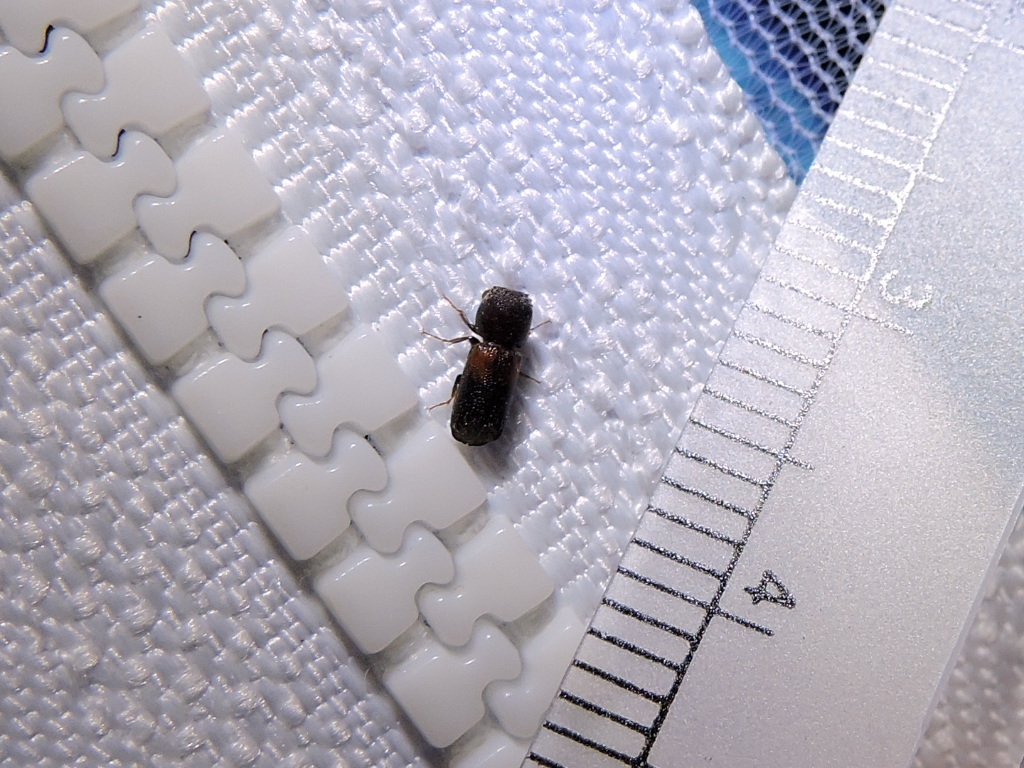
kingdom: Animalia
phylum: Arthropoda
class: Insecta
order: Coleoptera
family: Bostrichidae
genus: Xylobiops
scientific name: Xylobiops basilaris
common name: Red-shouldered bostrichid
